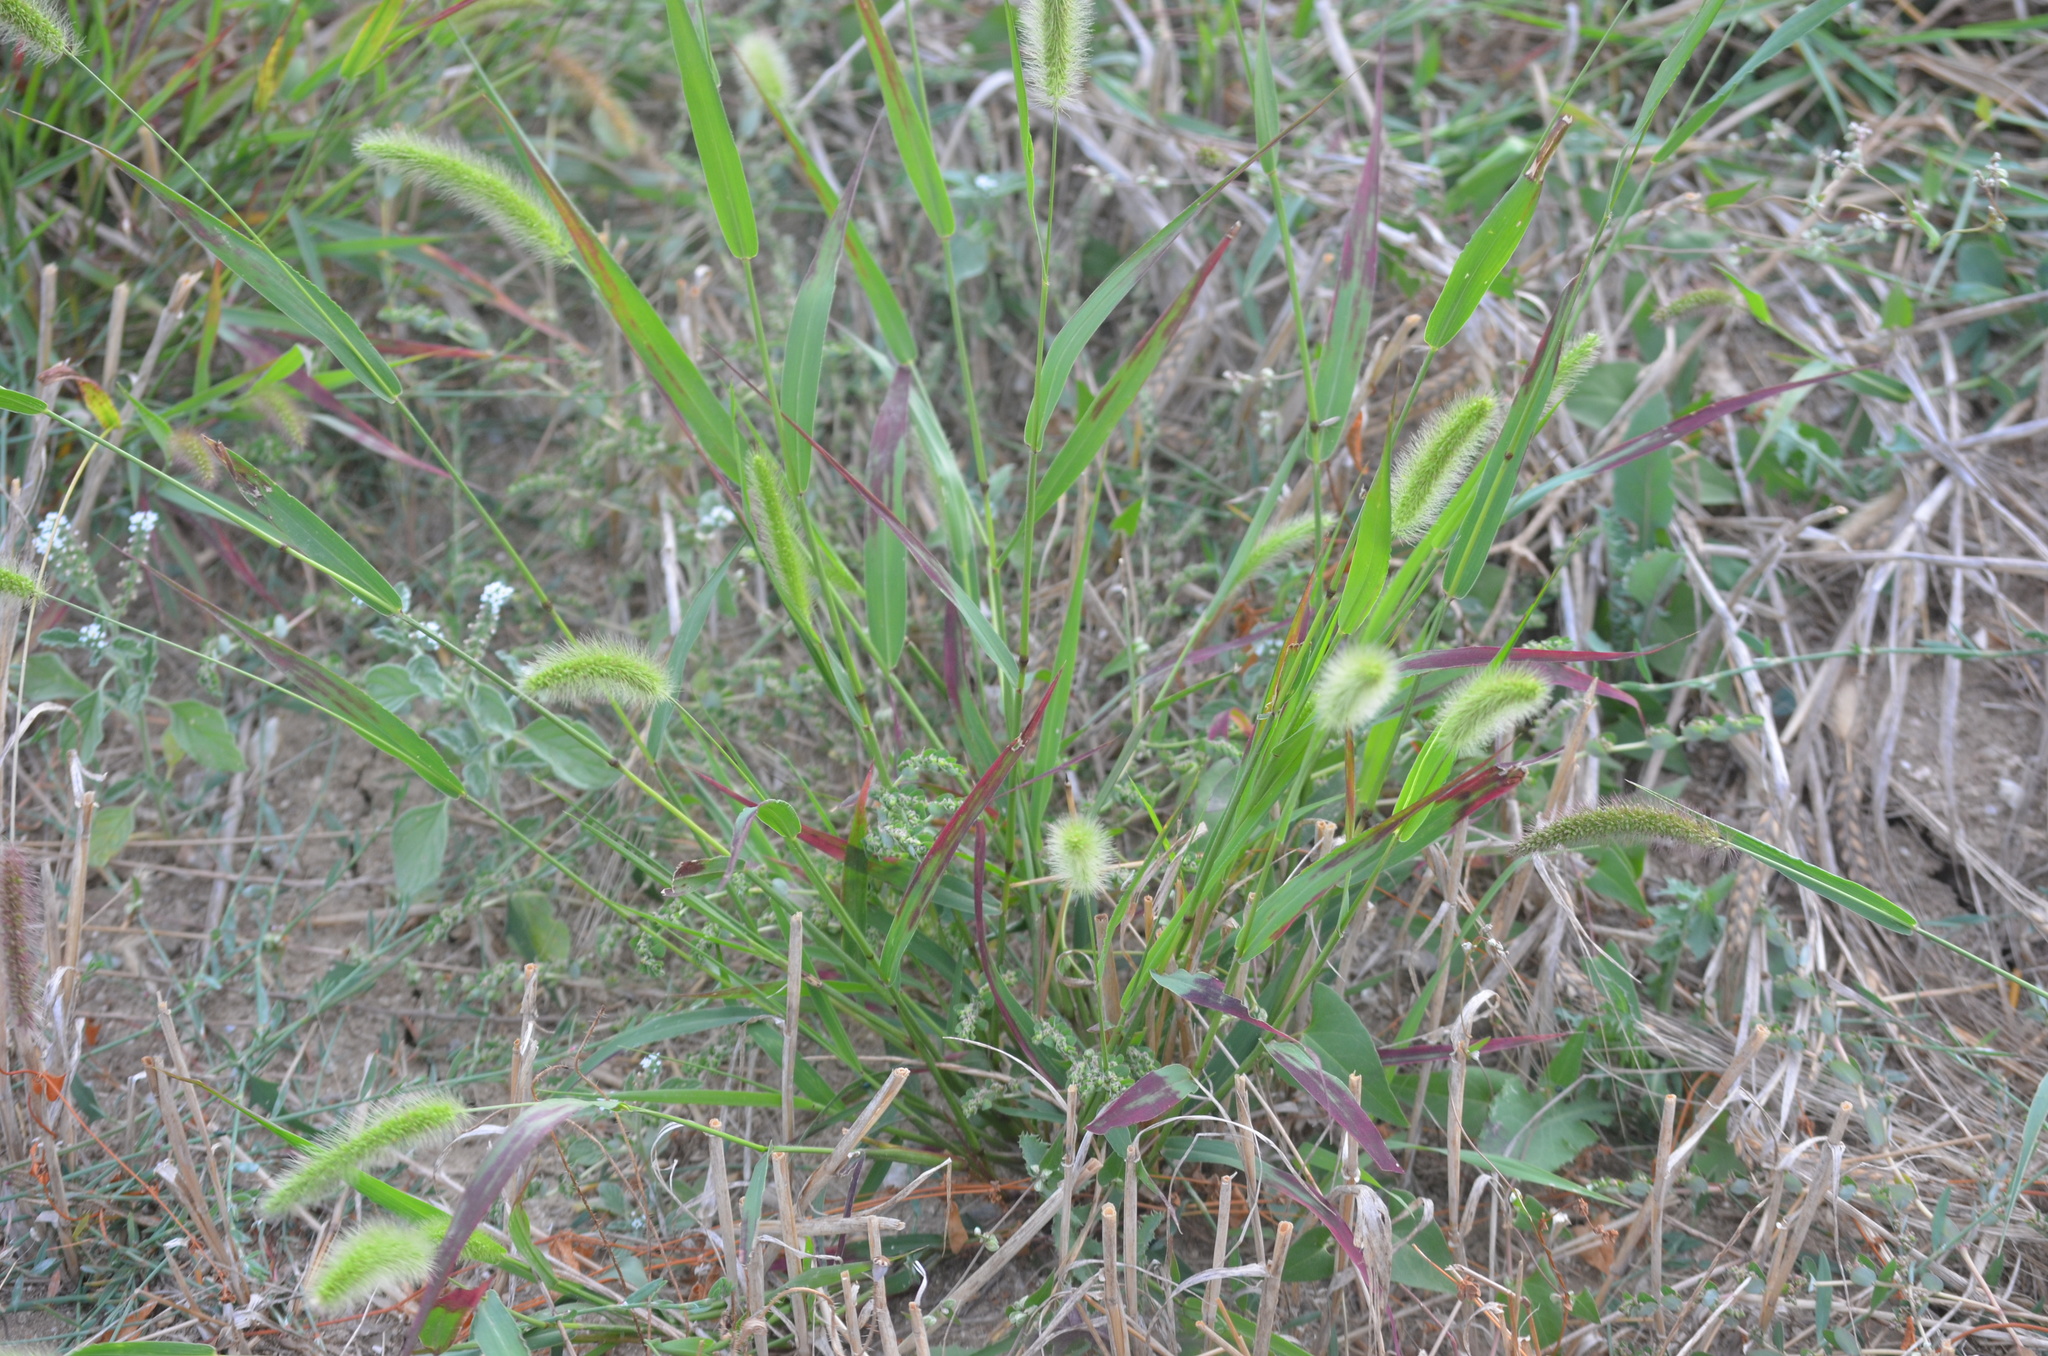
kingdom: Plantae
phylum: Tracheophyta
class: Liliopsida
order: Poales
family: Poaceae
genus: Setaria
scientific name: Setaria viridis
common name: Green bristlegrass
